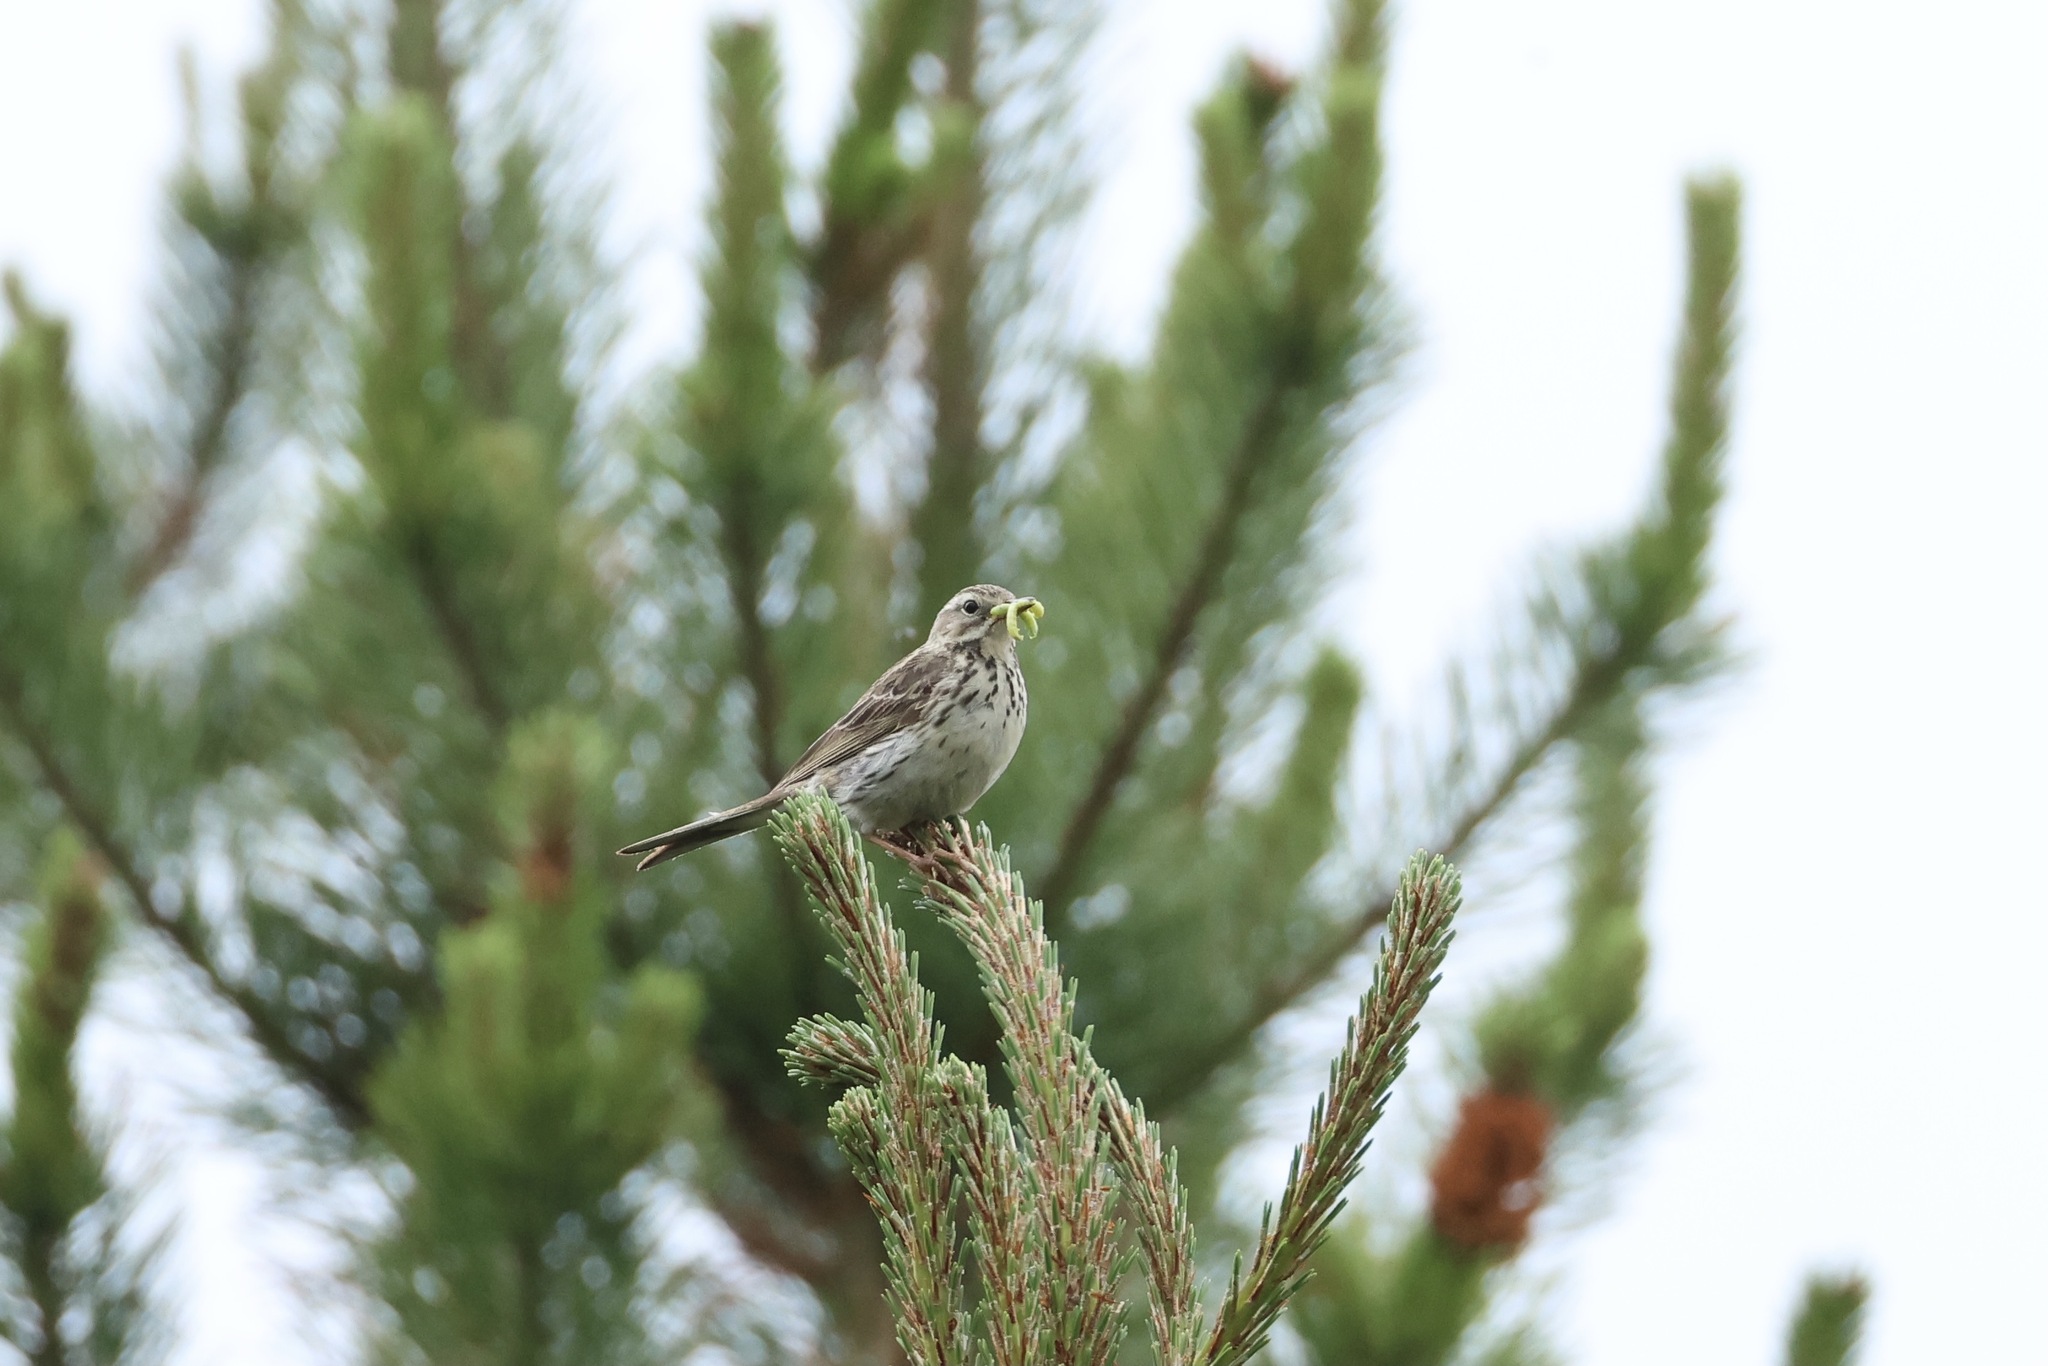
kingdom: Animalia
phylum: Chordata
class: Aves
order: Passeriformes
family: Motacillidae
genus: Anthus
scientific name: Anthus pratensis
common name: Meadow pipit
